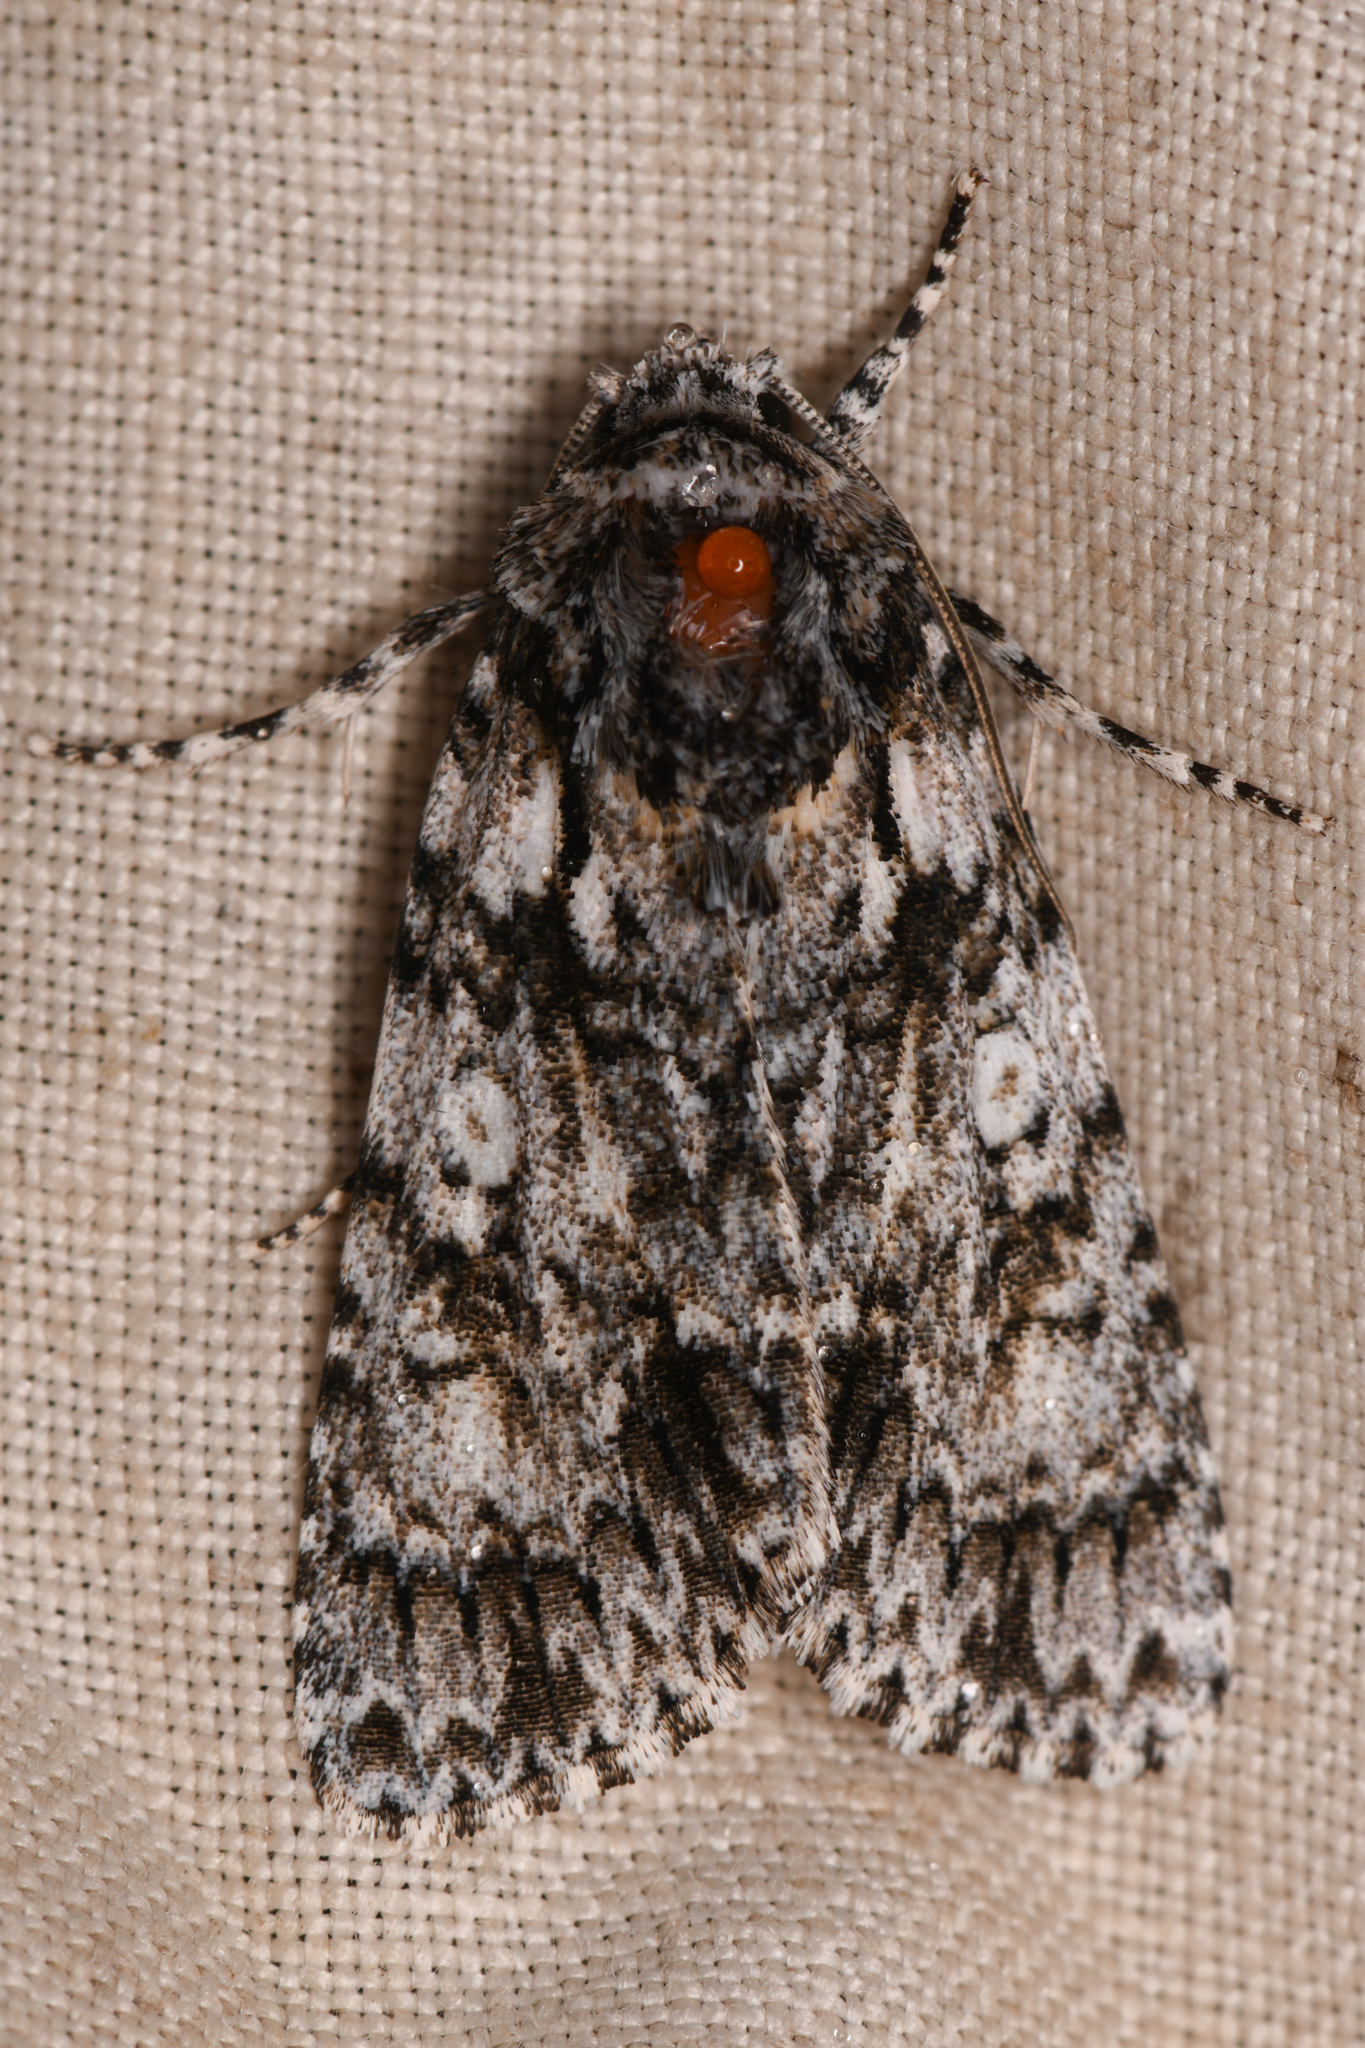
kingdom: Animalia
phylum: Arthropoda
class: Insecta
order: Lepidoptera
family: Noctuidae
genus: Acronicta
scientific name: Acronicta marmorata
